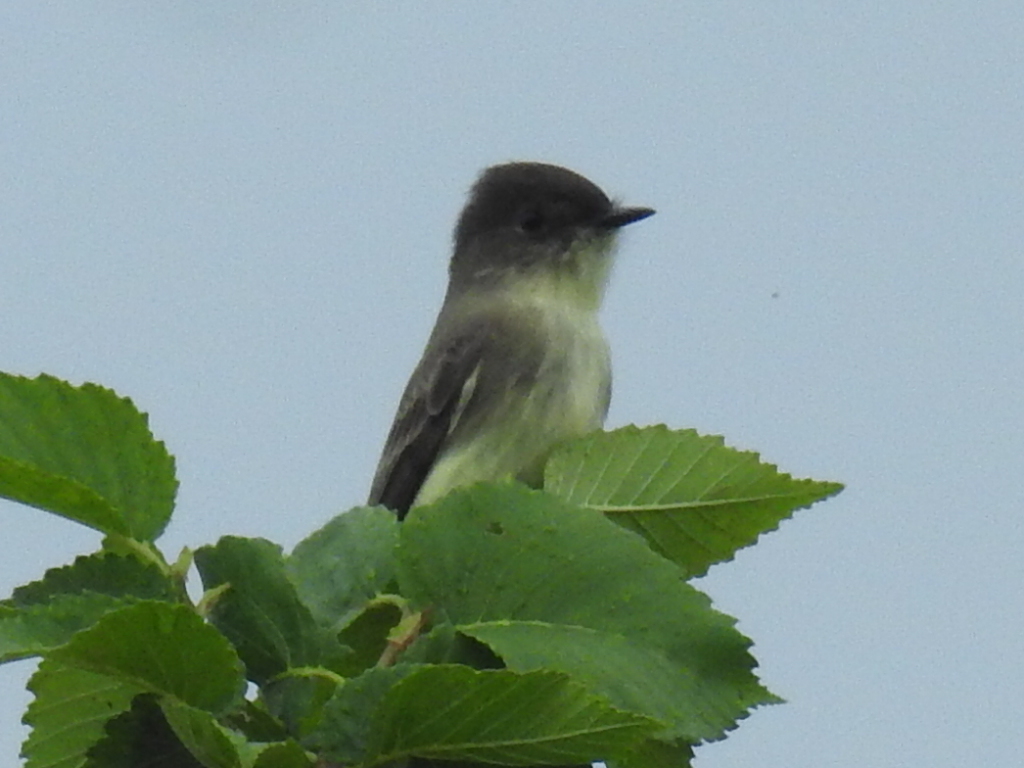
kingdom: Animalia
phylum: Chordata
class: Aves
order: Passeriformes
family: Tyrannidae
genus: Sayornis
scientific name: Sayornis phoebe
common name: Eastern phoebe
